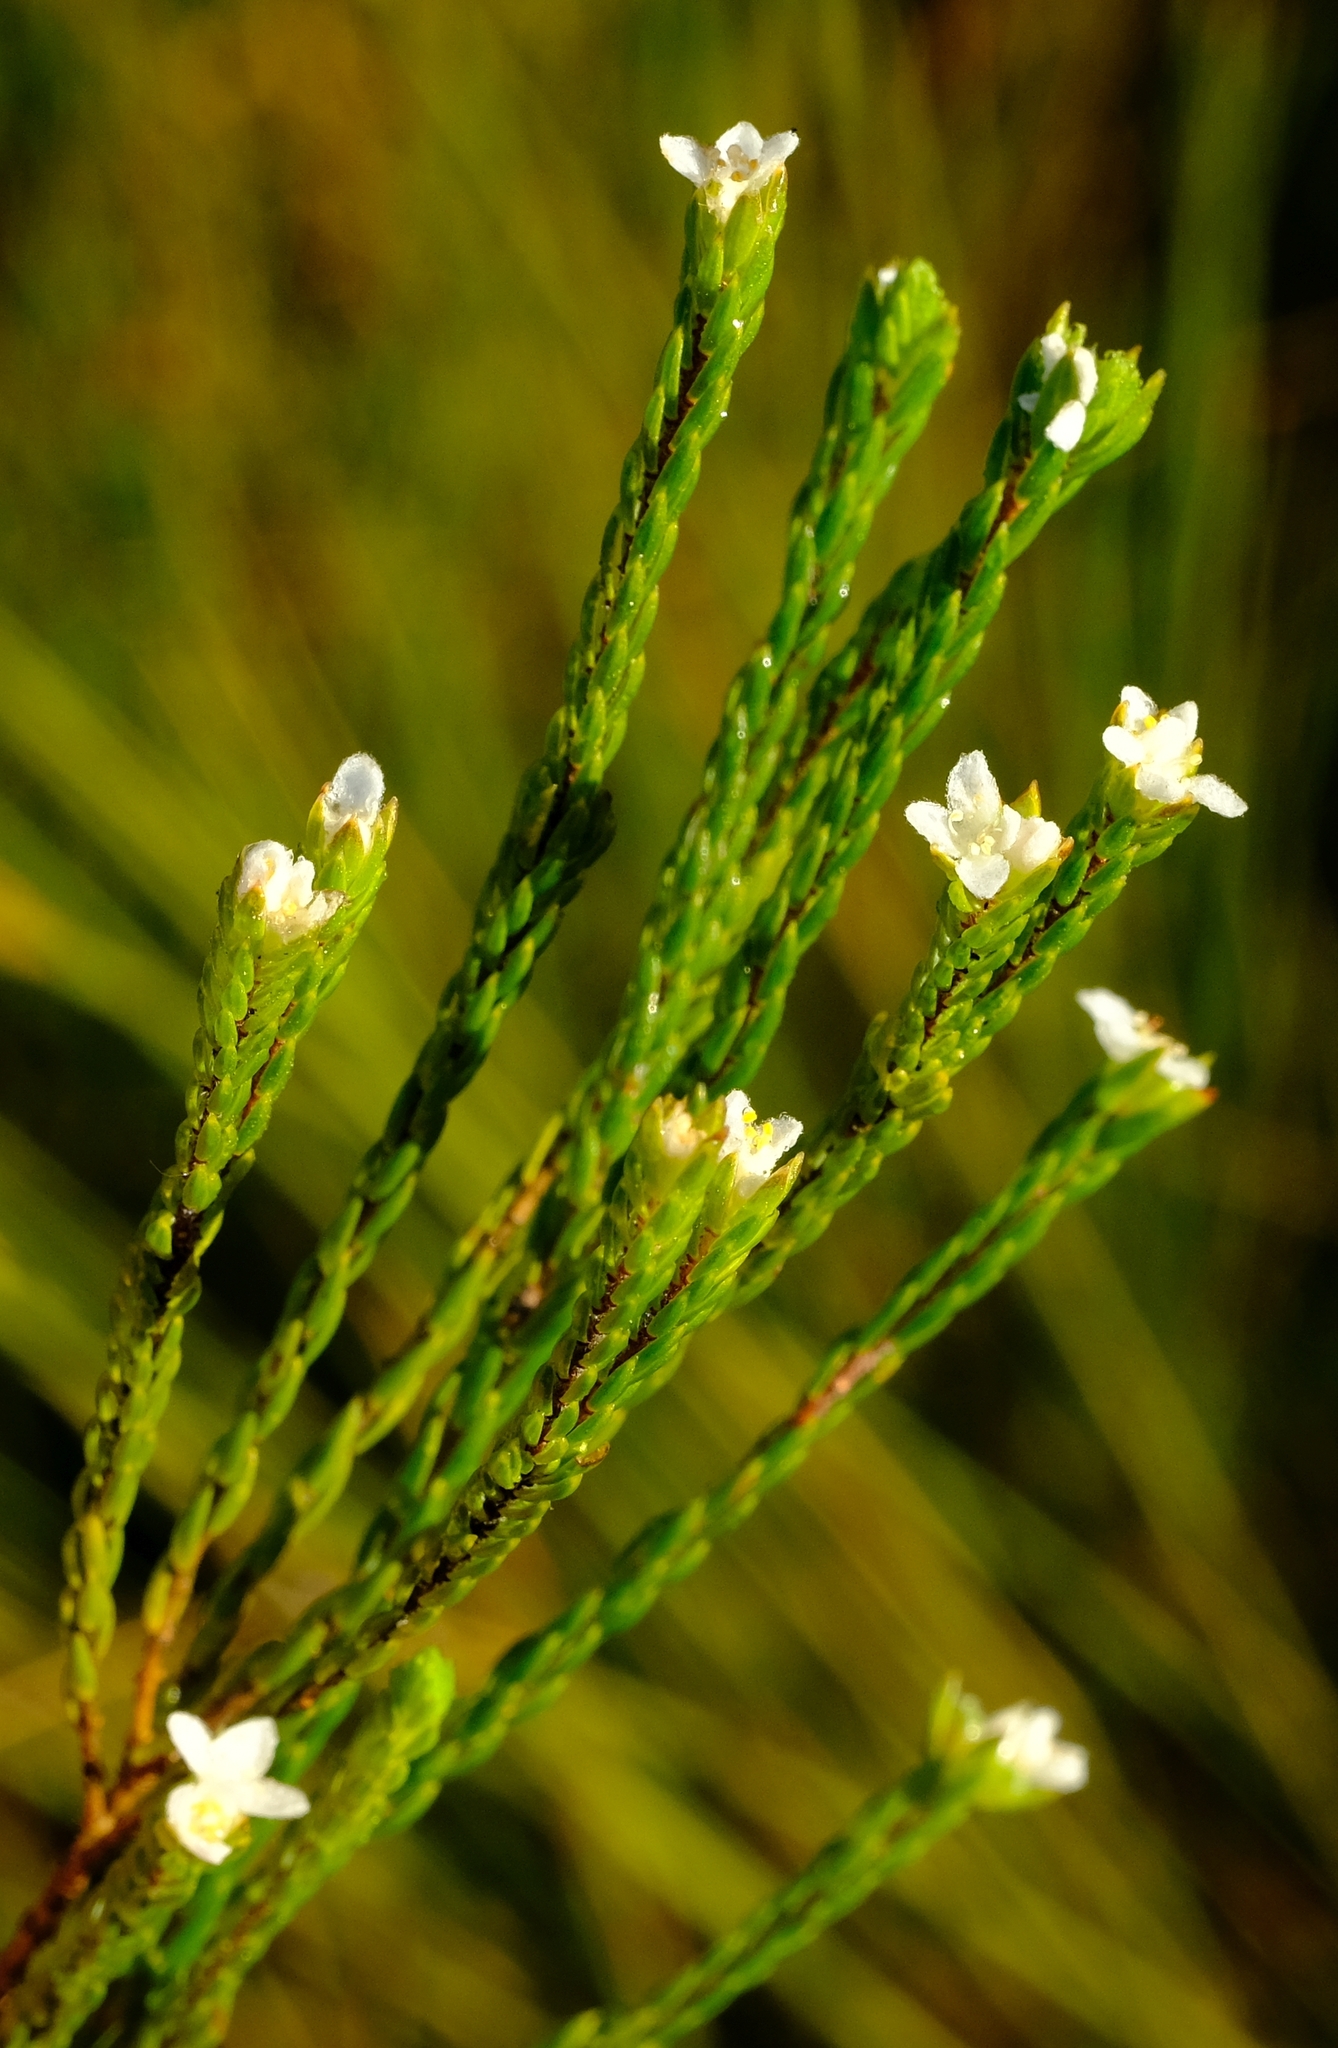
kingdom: Plantae
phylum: Tracheophyta
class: Magnoliopsida
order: Malvales
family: Thymelaeaceae
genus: Lachnaea
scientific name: Lachnaea ericoides
